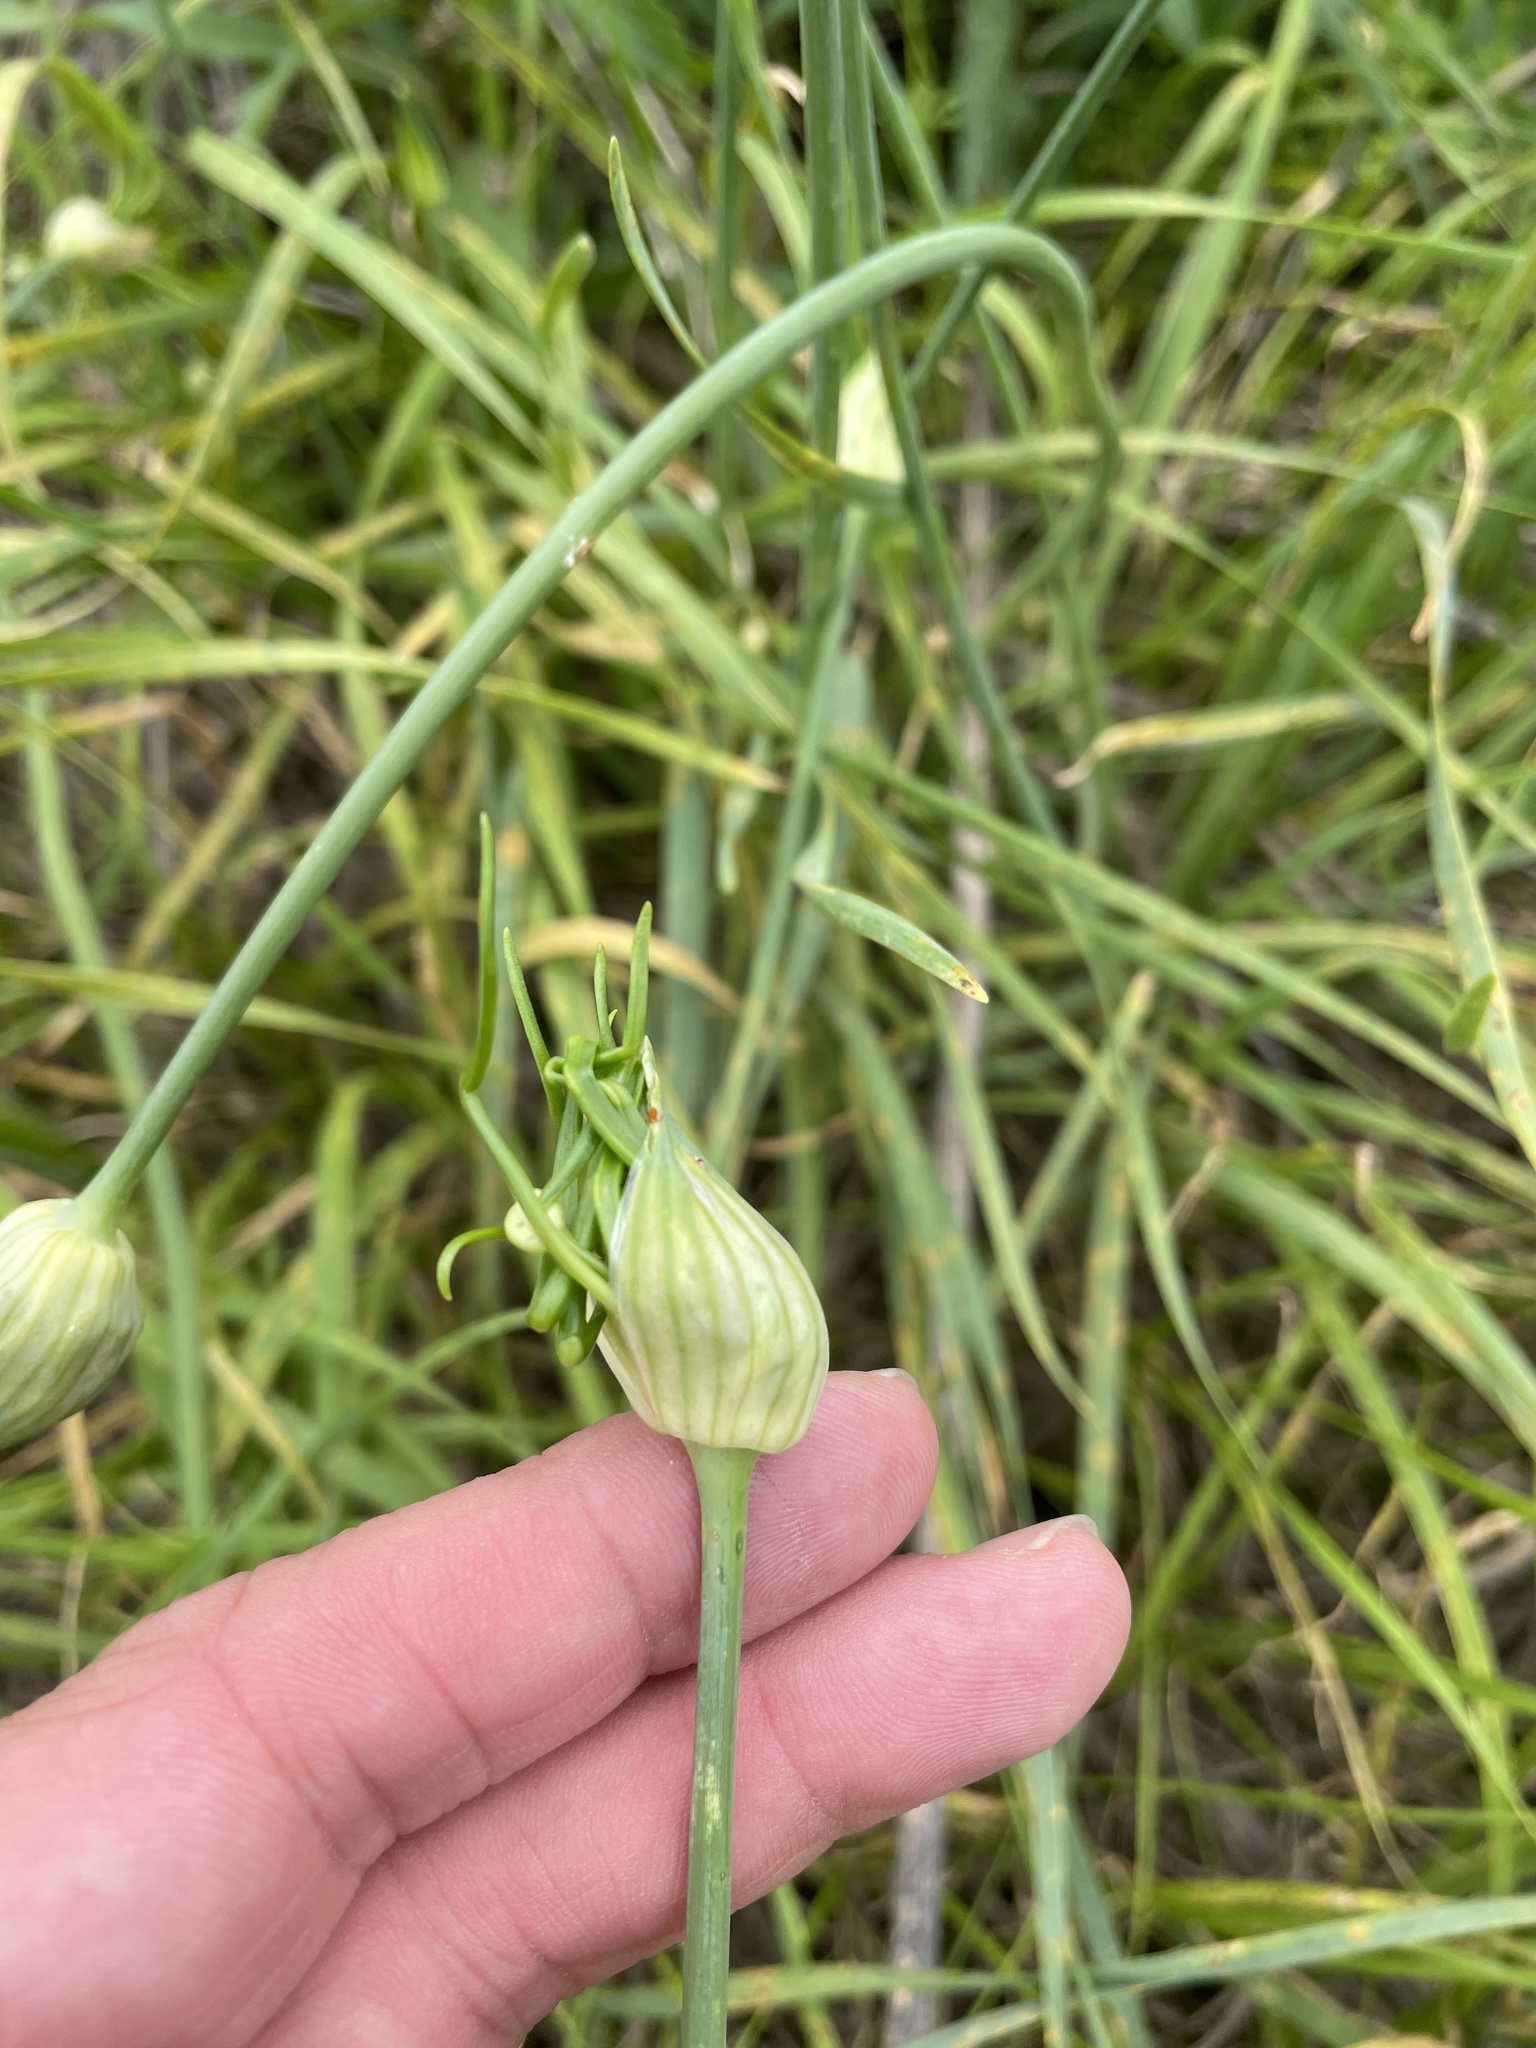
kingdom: Plantae
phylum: Tracheophyta
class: Liliopsida
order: Asparagales
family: Amaryllidaceae
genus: Allium
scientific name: Allium canadense
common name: Meadow garlic
